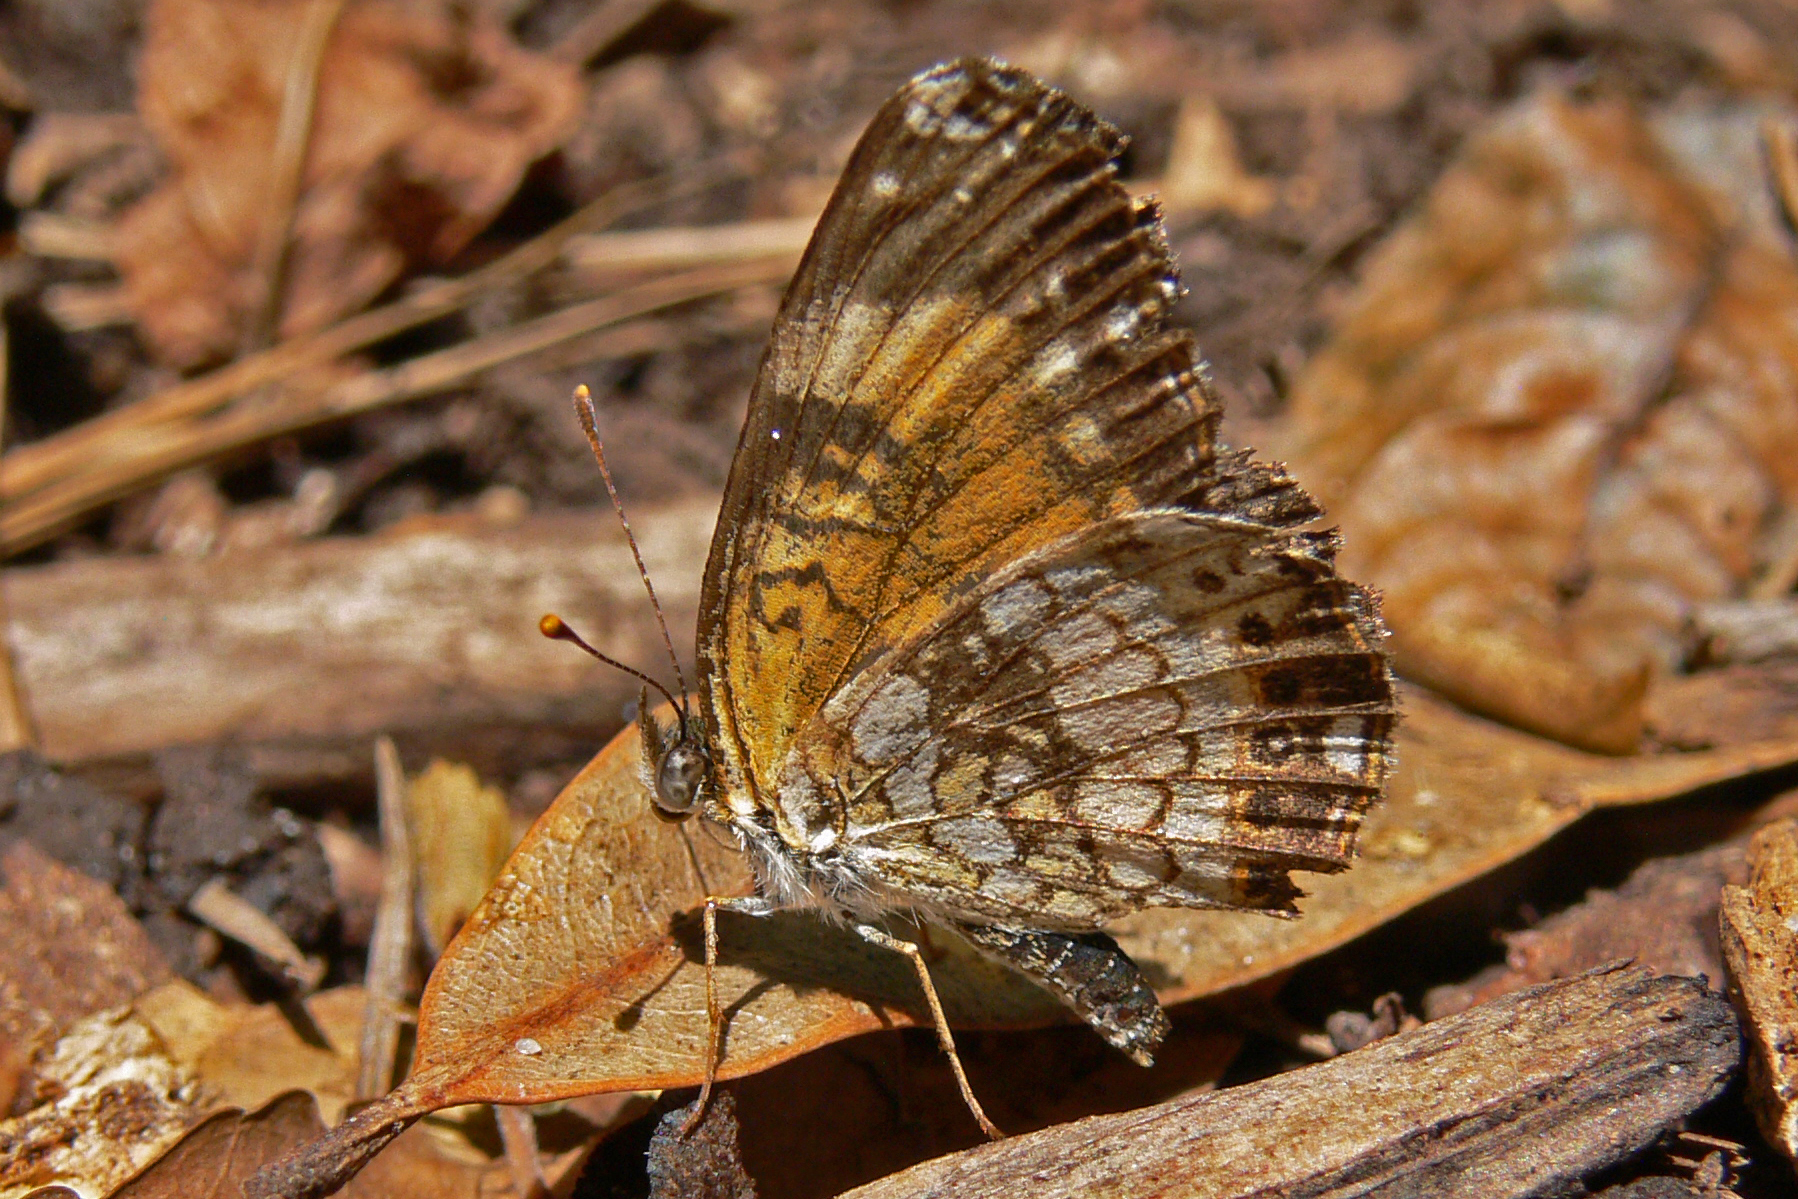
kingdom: Animalia
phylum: Arthropoda
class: Insecta
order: Lepidoptera
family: Nymphalidae
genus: Chlosyne
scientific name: Chlosyne nycteis
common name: Silvery checkerspot
